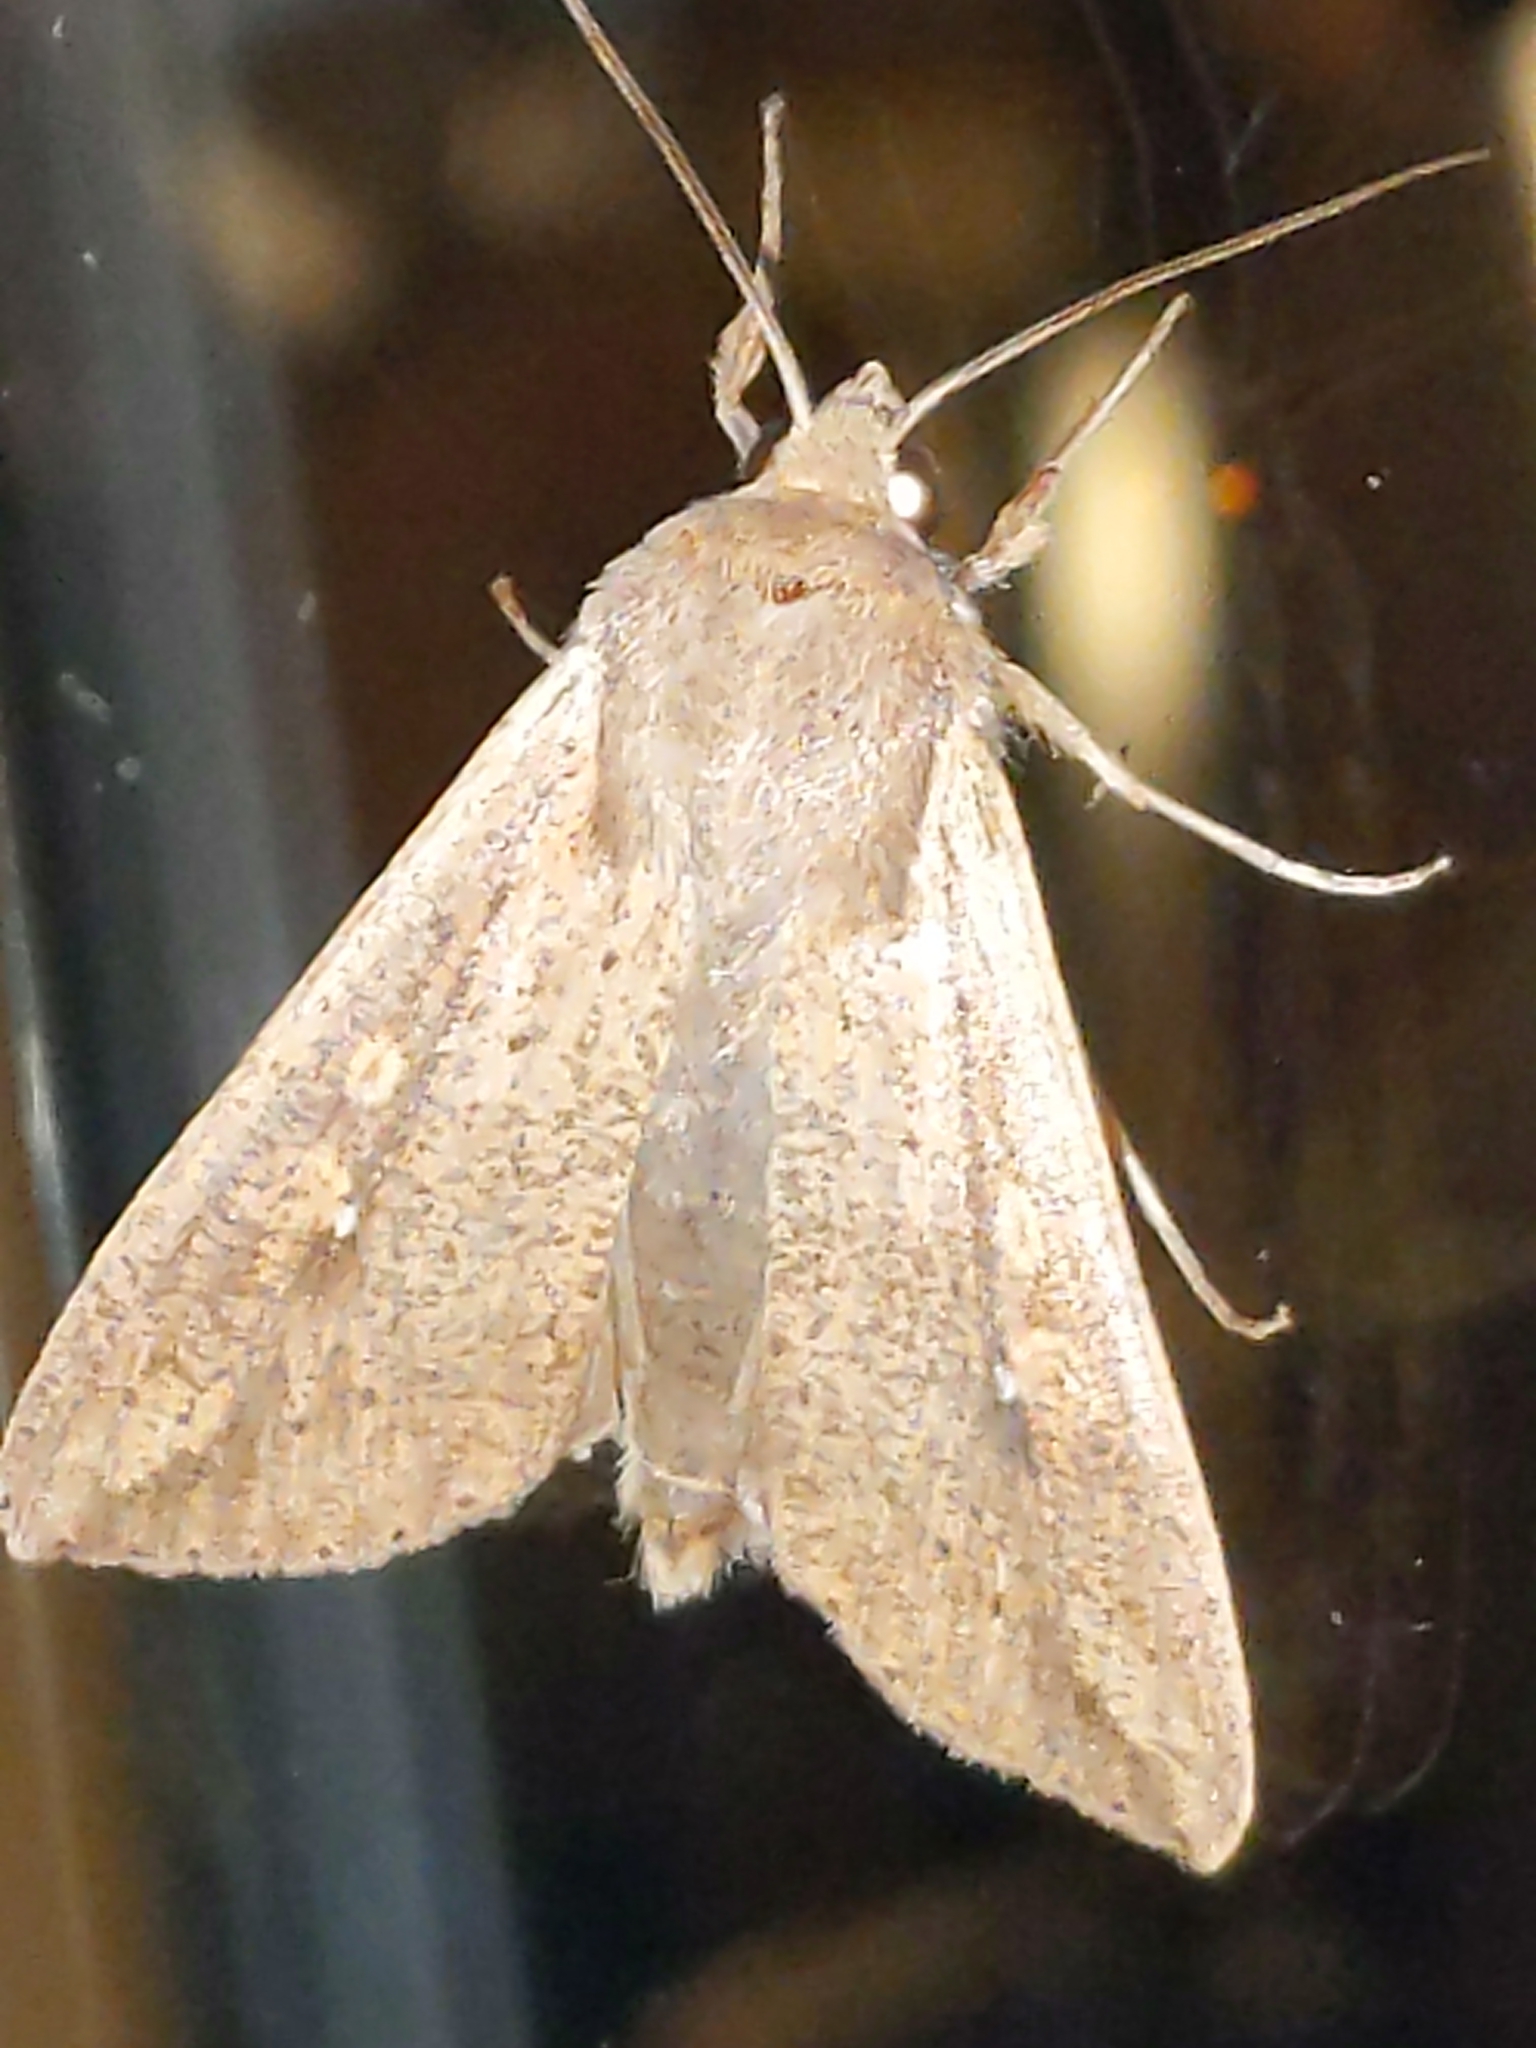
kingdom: Animalia
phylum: Arthropoda
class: Insecta
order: Lepidoptera
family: Noctuidae
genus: Mythimna
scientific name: Mythimna unipuncta
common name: White-speck
